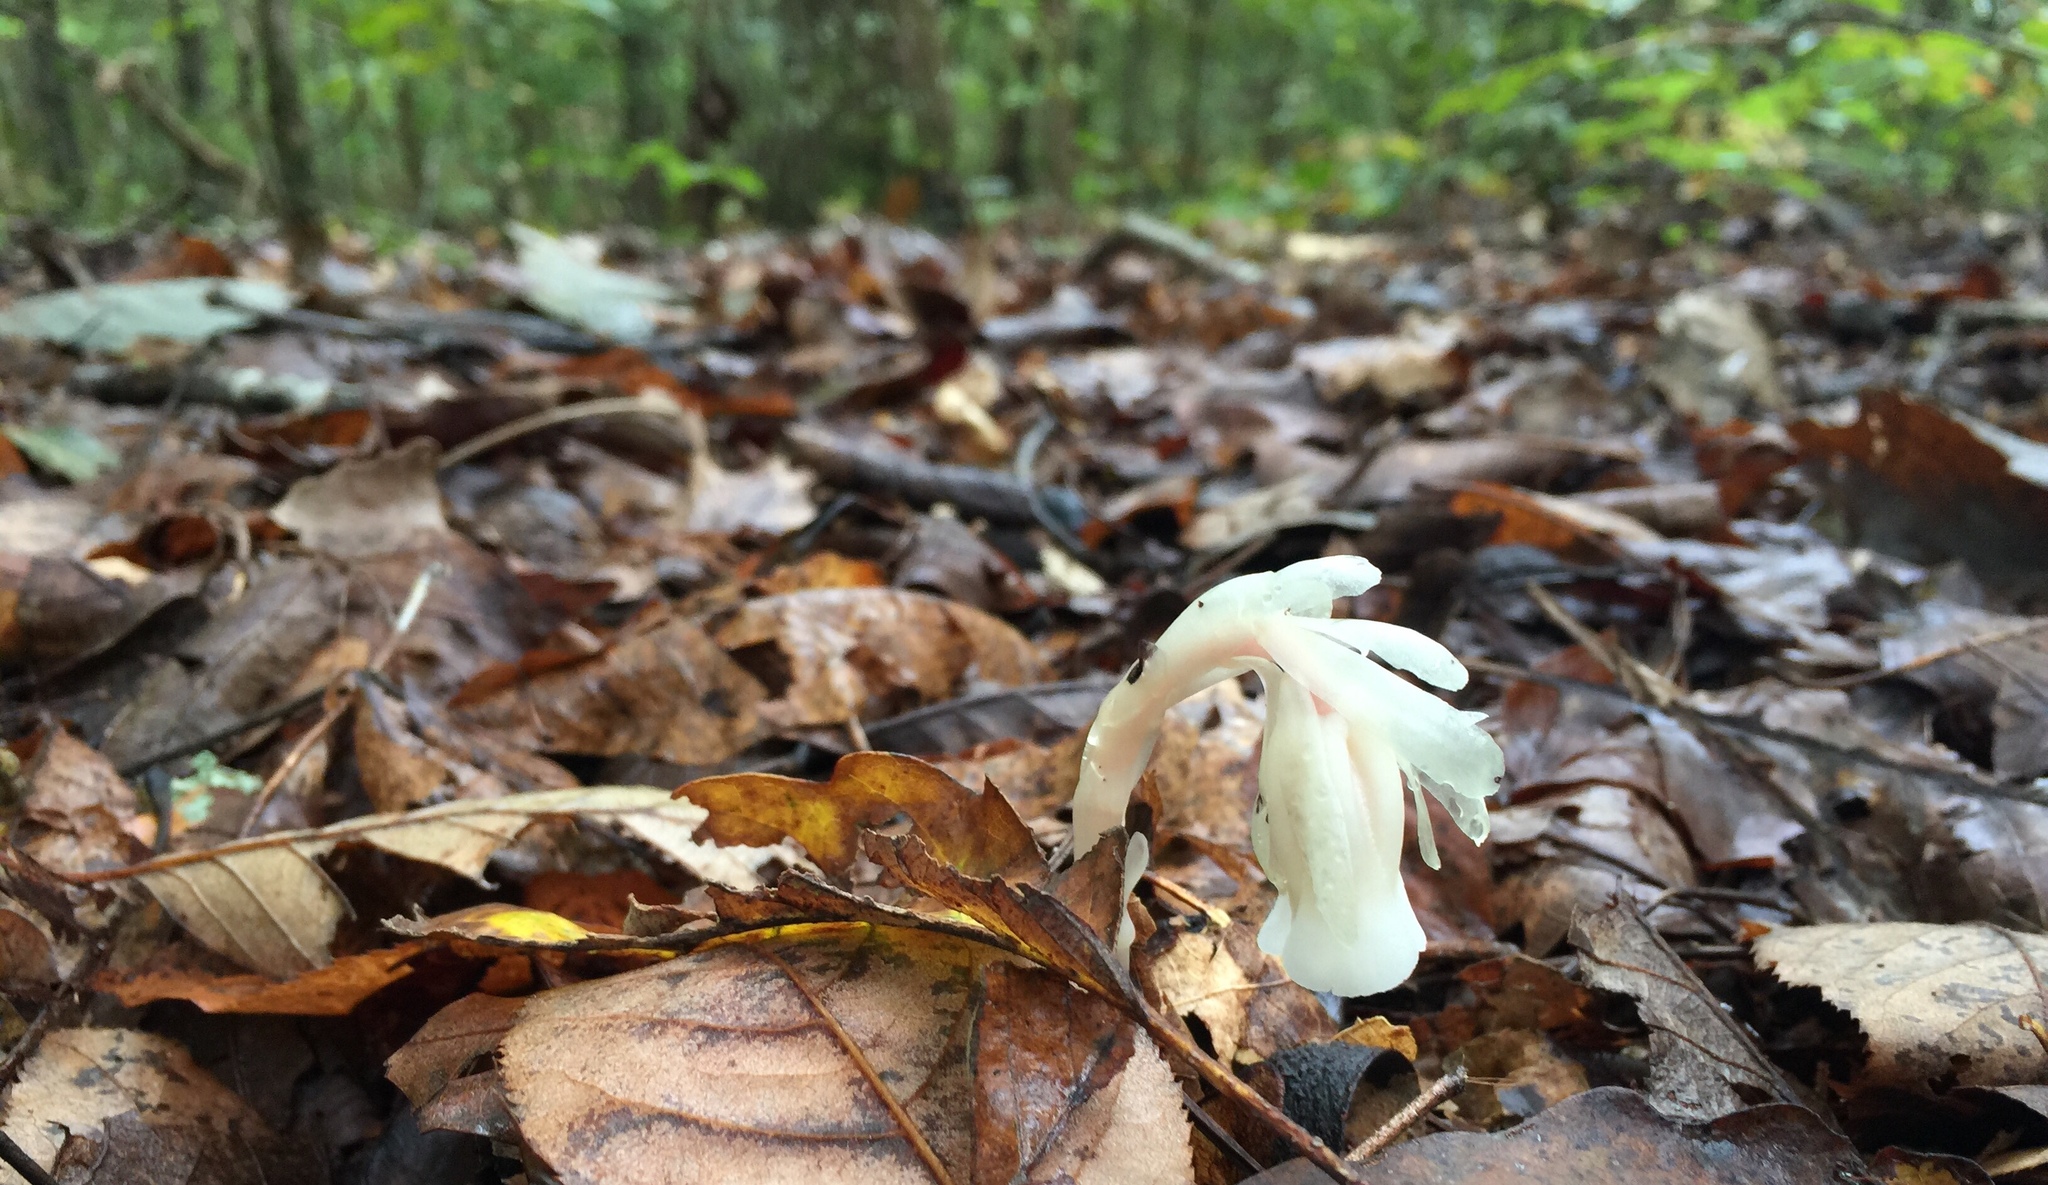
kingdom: Plantae
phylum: Tracheophyta
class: Magnoliopsida
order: Ericales
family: Ericaceae
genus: Monotropa
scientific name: Monotropa uniflora
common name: Convulsion root
